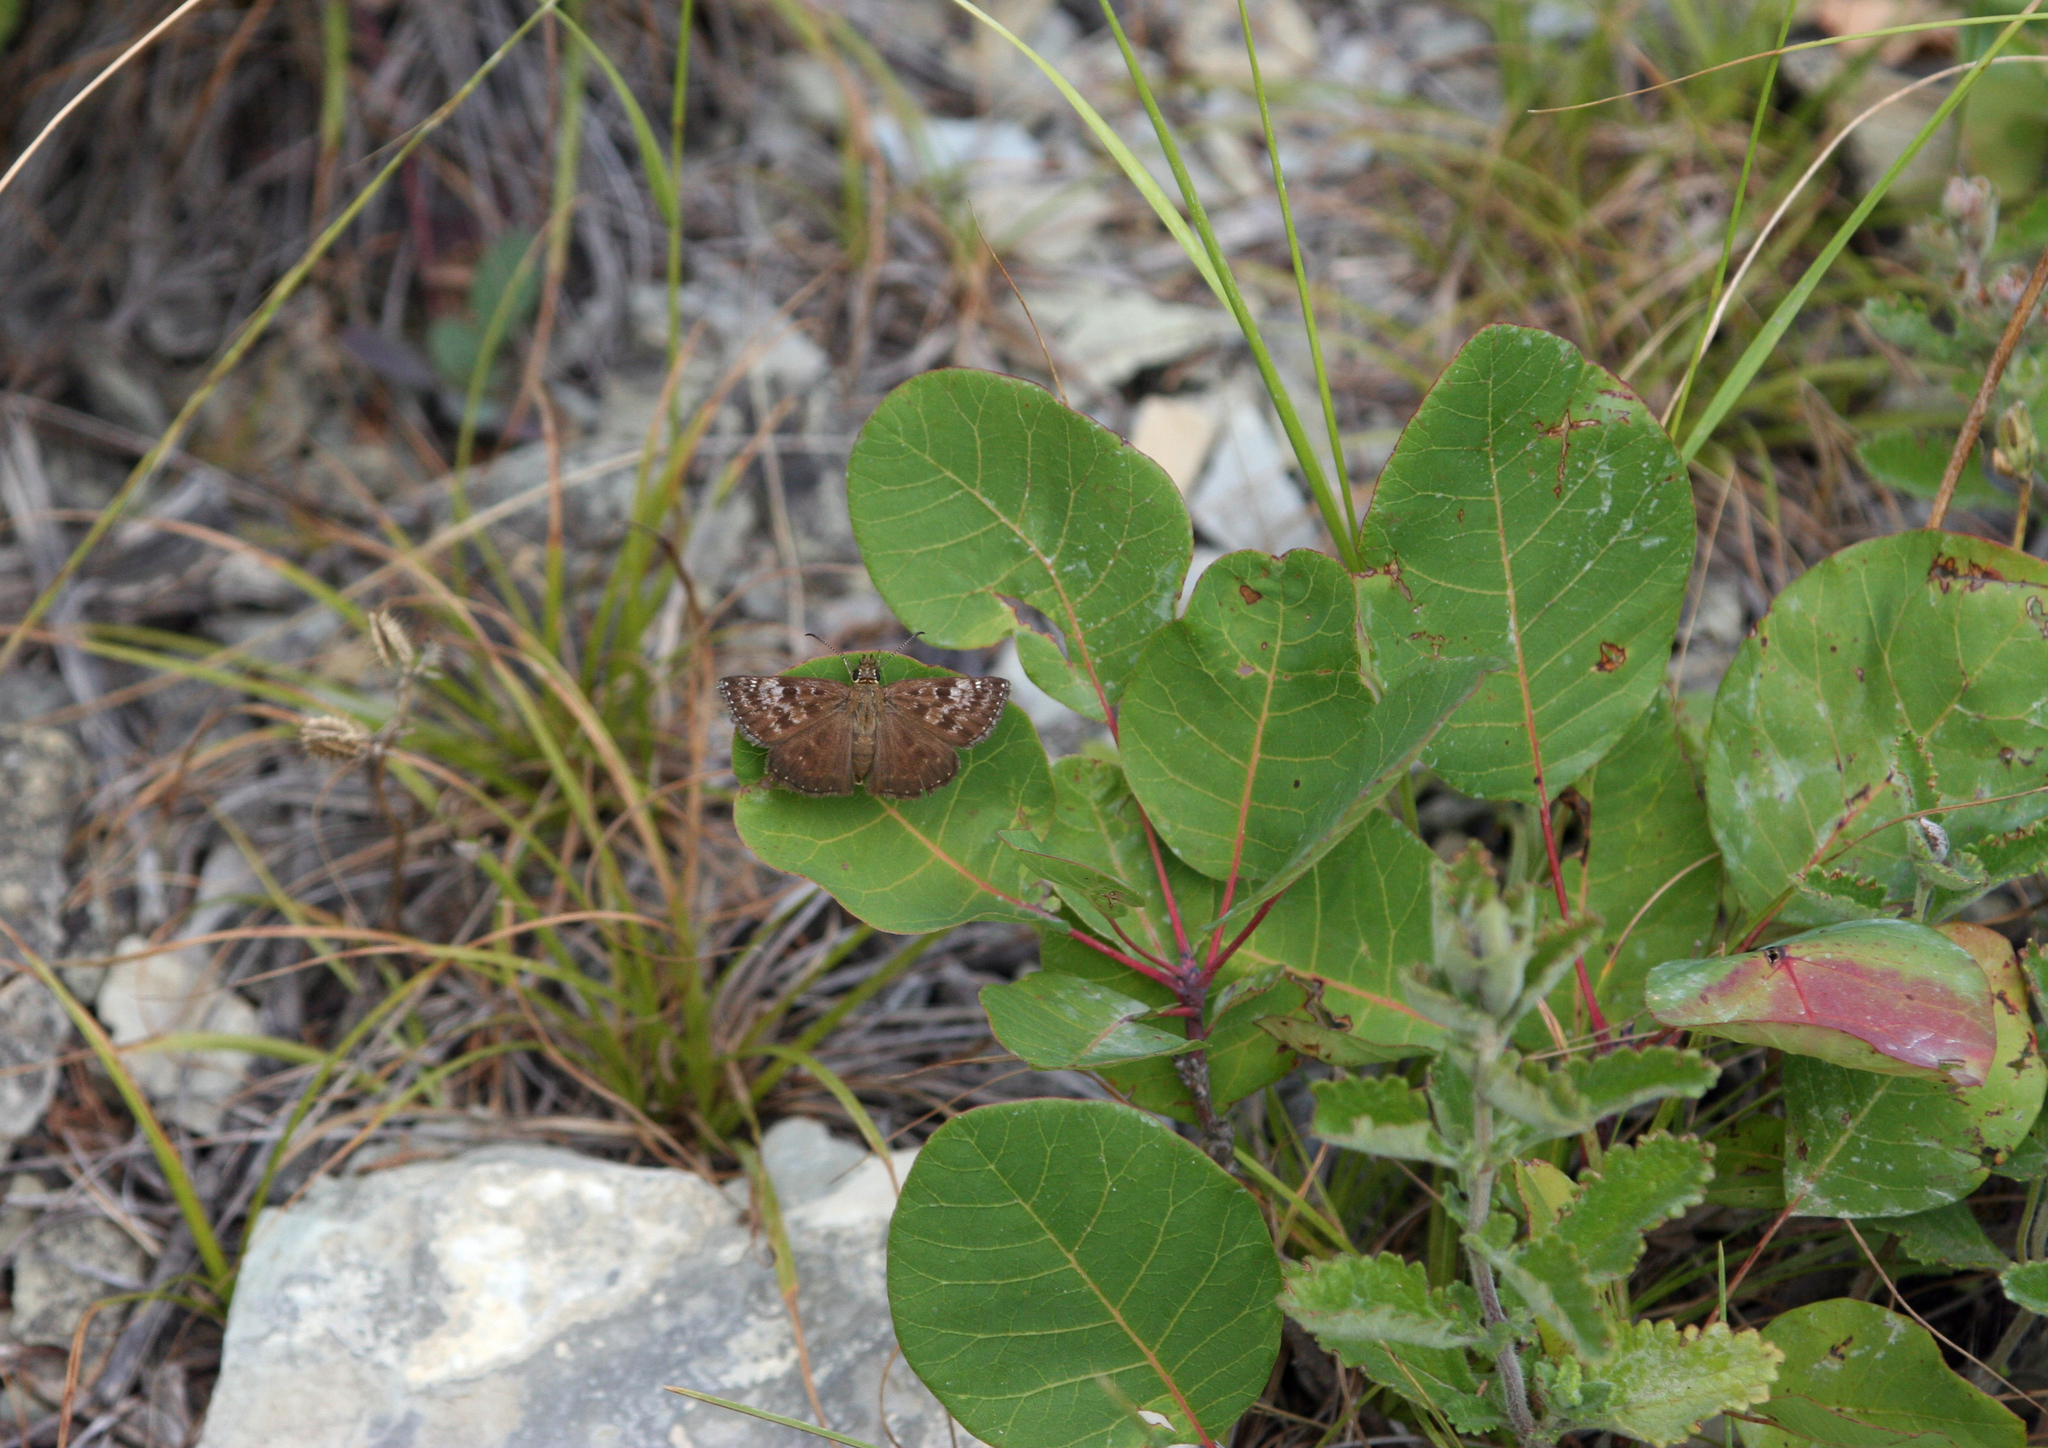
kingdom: Animalia
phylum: Arthropoda
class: Insecta
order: Lepidoptera
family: Hesperiidae
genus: Erynnis
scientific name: Erynnis tages
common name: Dingy skipper
